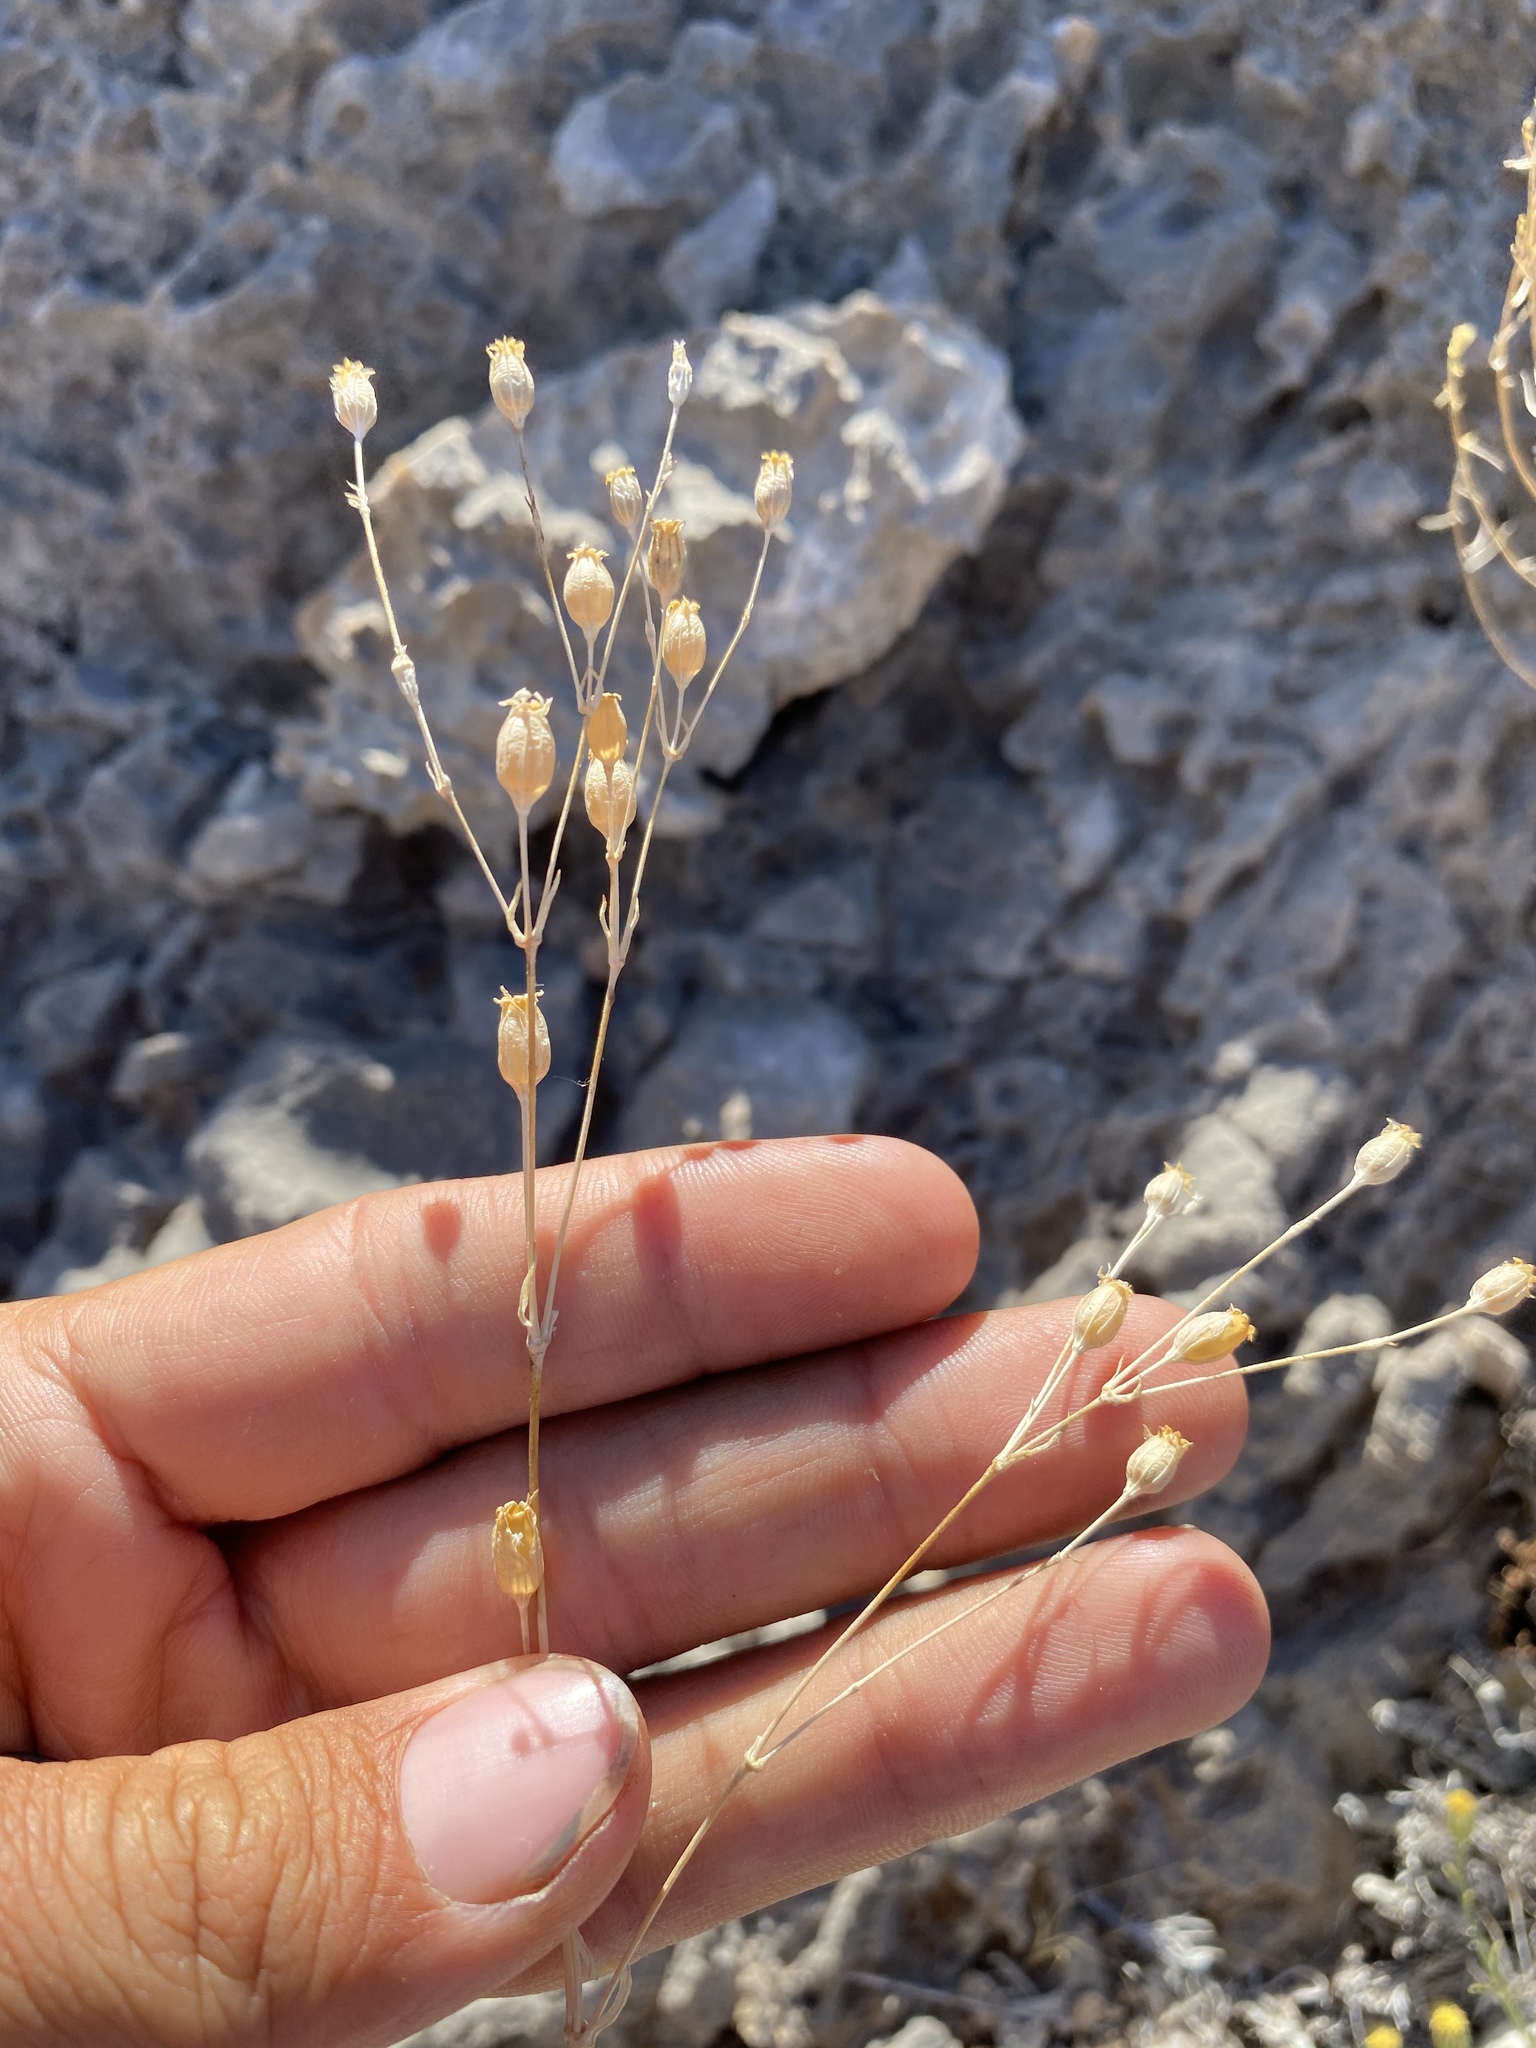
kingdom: Plantae
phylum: Tracheophyta
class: Magnoliopsida
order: Caryophyllales
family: Caryophyllaceae
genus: Silene
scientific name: Silene antirrhina
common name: Sleepy catchfly
